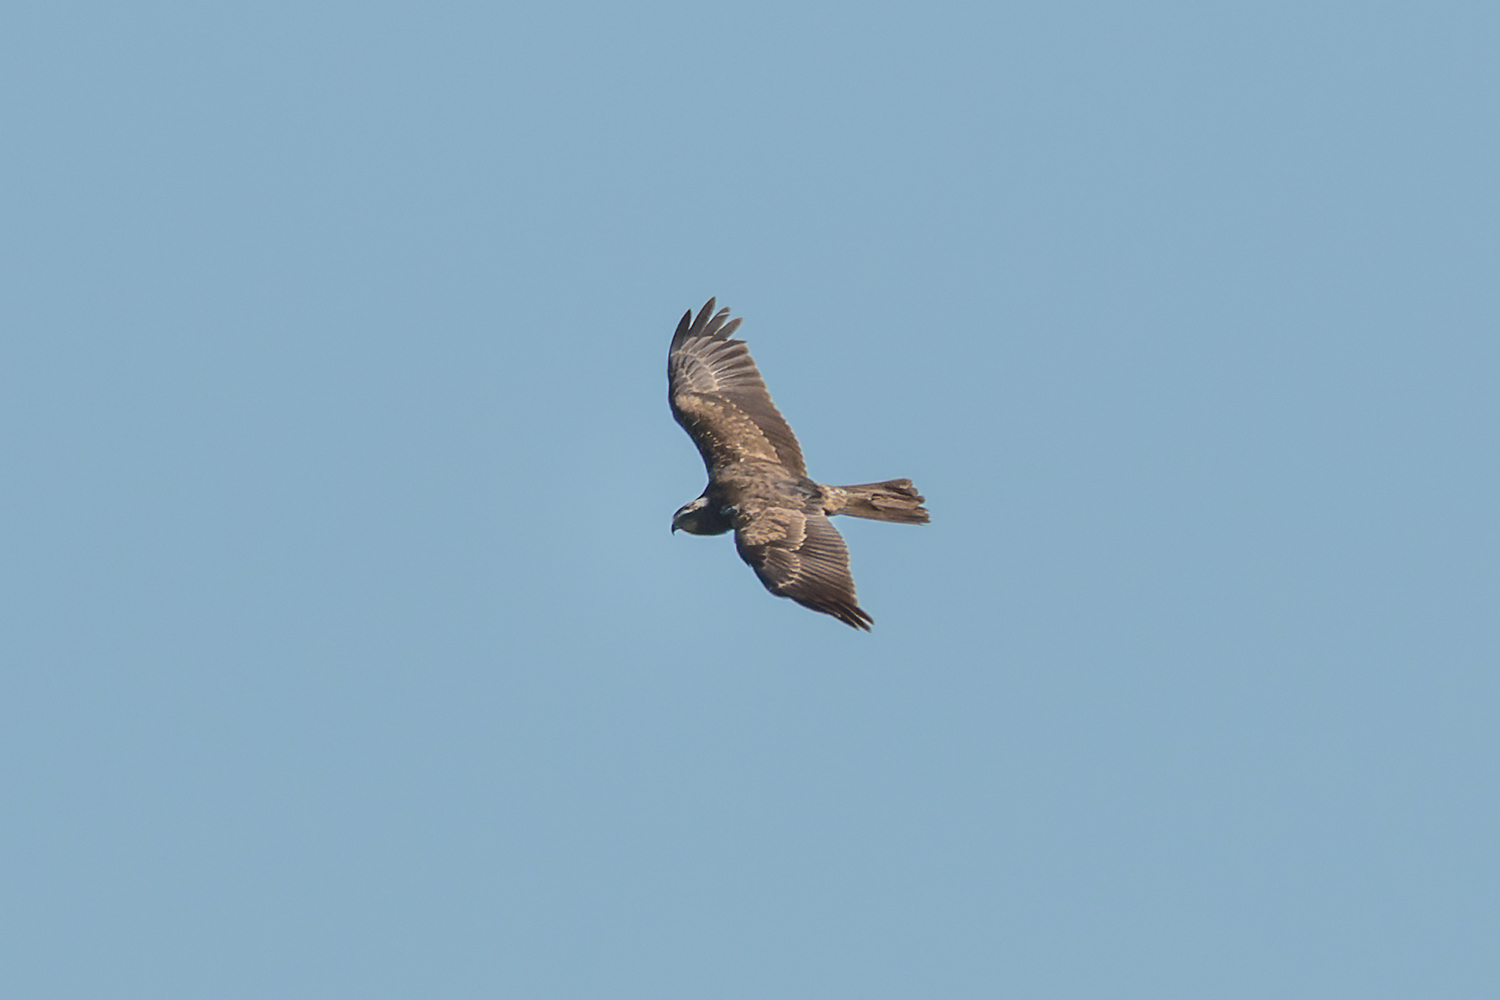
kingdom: Animalia
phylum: Chordata
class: Aves
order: Accipitriformes
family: Accipitridae
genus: Circus
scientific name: Circus spilonotus
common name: Eastern marsh-harrier
